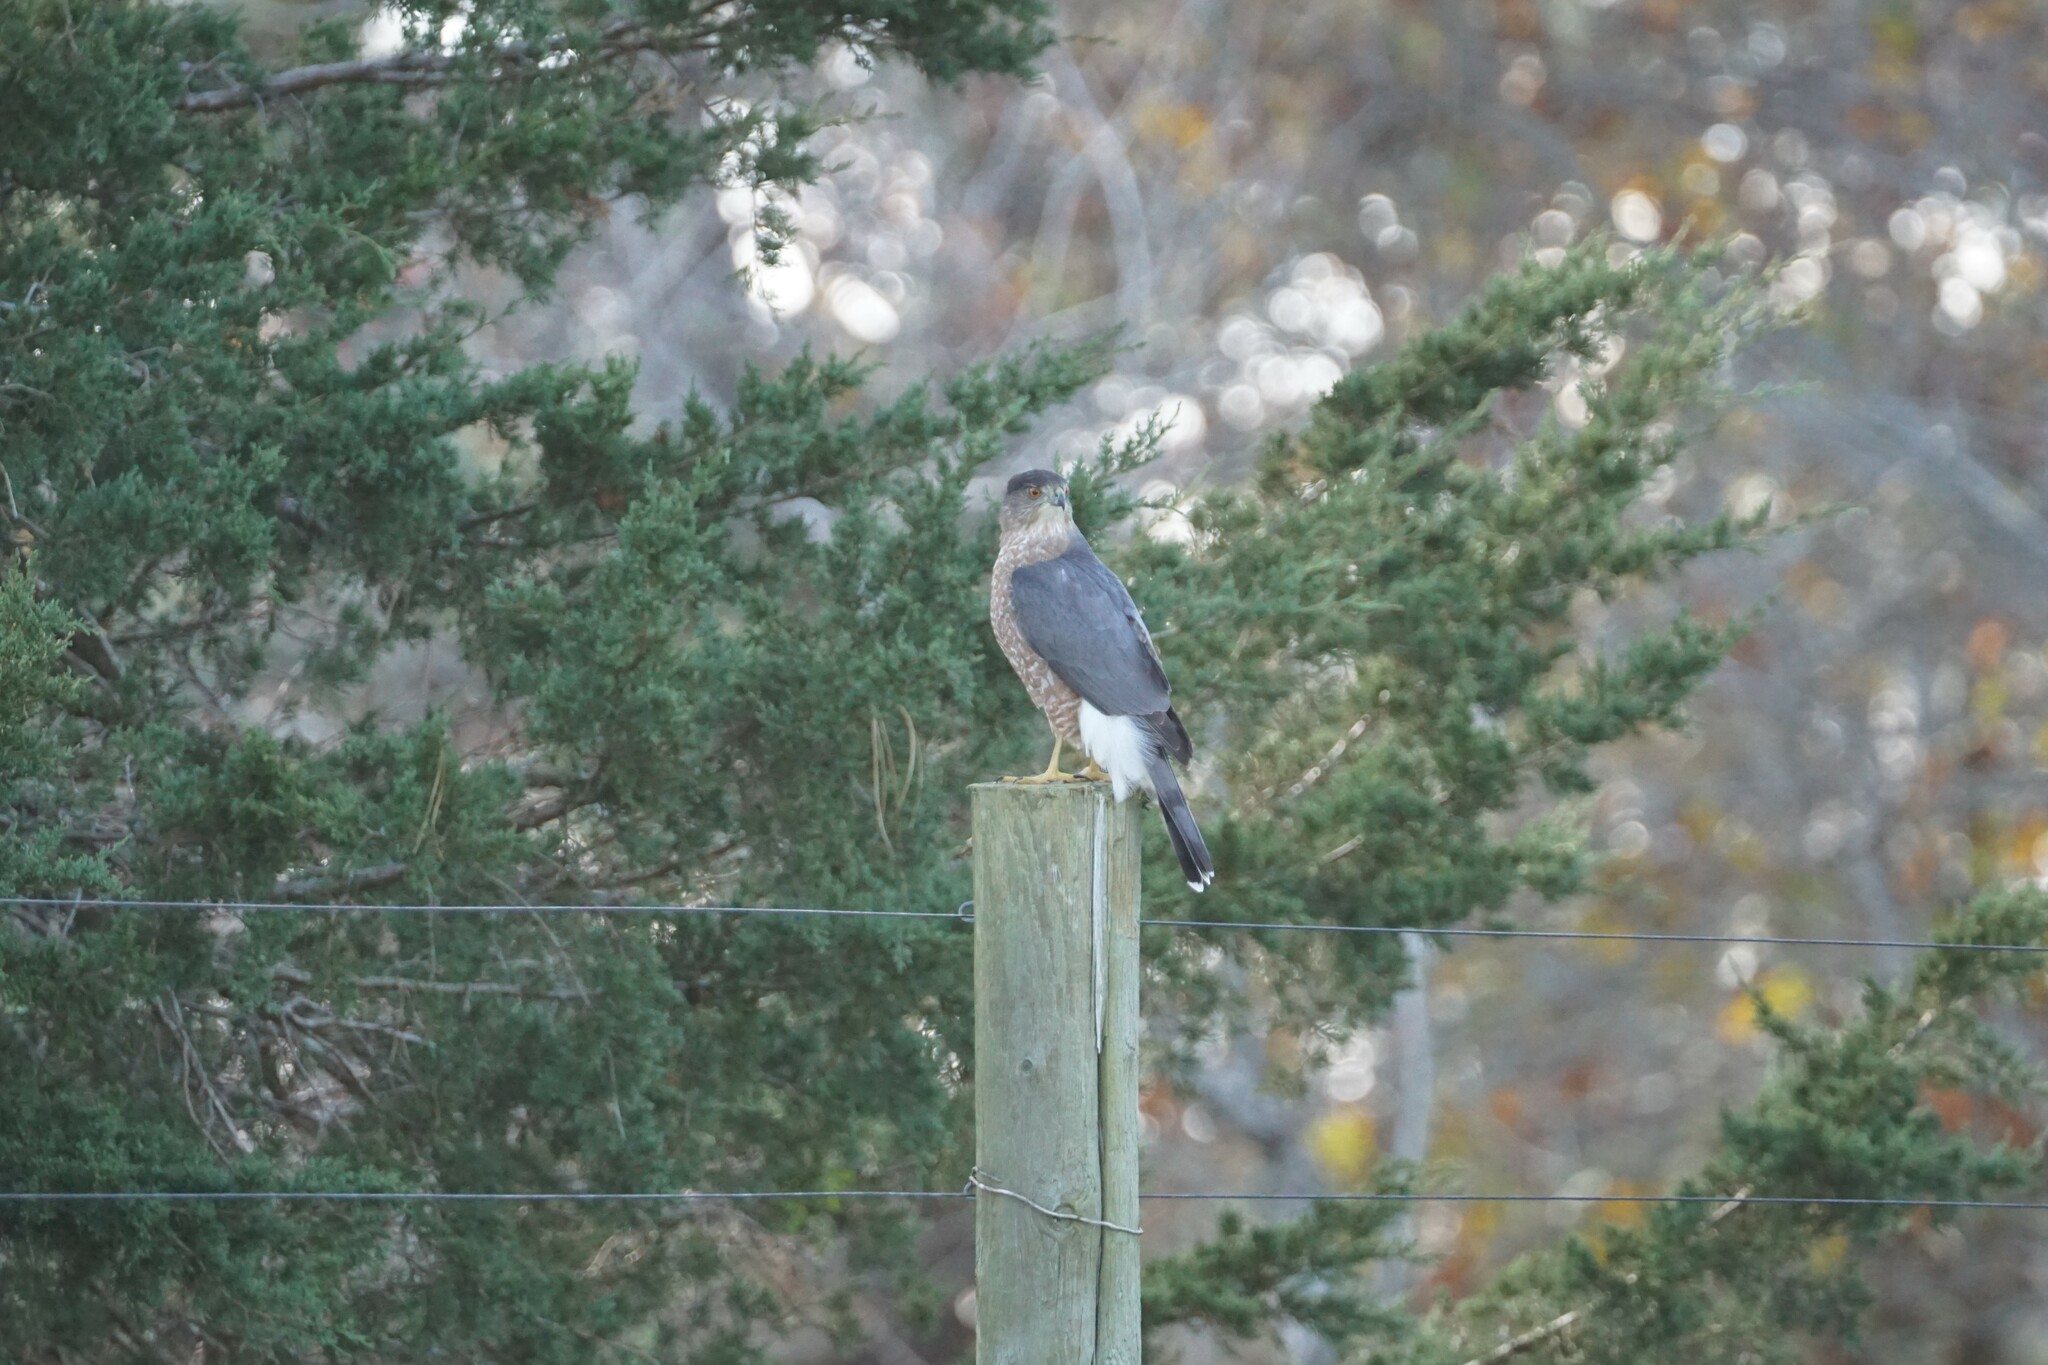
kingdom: Animalia
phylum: Chordata
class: Aves
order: Accipitriformes
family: Accipitridae
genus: Accipiter
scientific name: Accipiter cooperii
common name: Cooper's hawk
